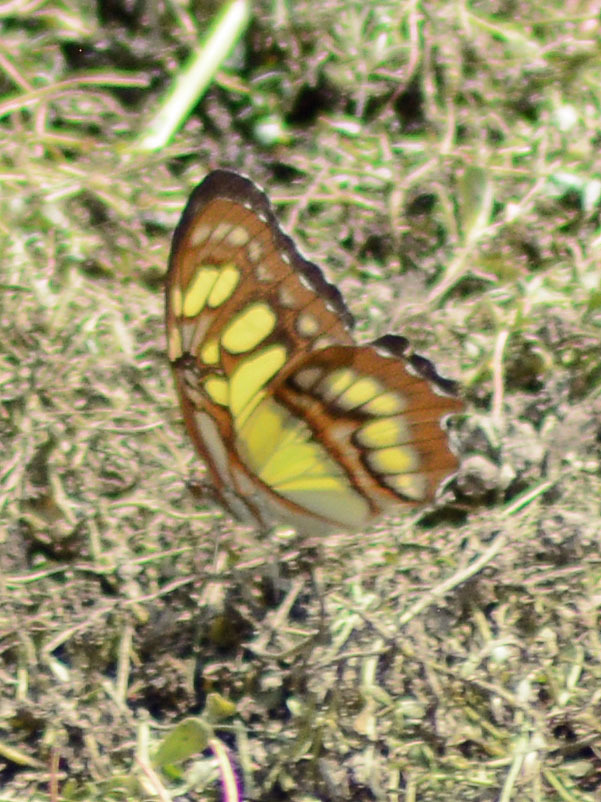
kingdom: Animalia
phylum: Arthropoda
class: Insecta
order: Lepidoptera
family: Nymphalidae
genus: Siproeta
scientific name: Siproeta stelenes
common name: Malachite
